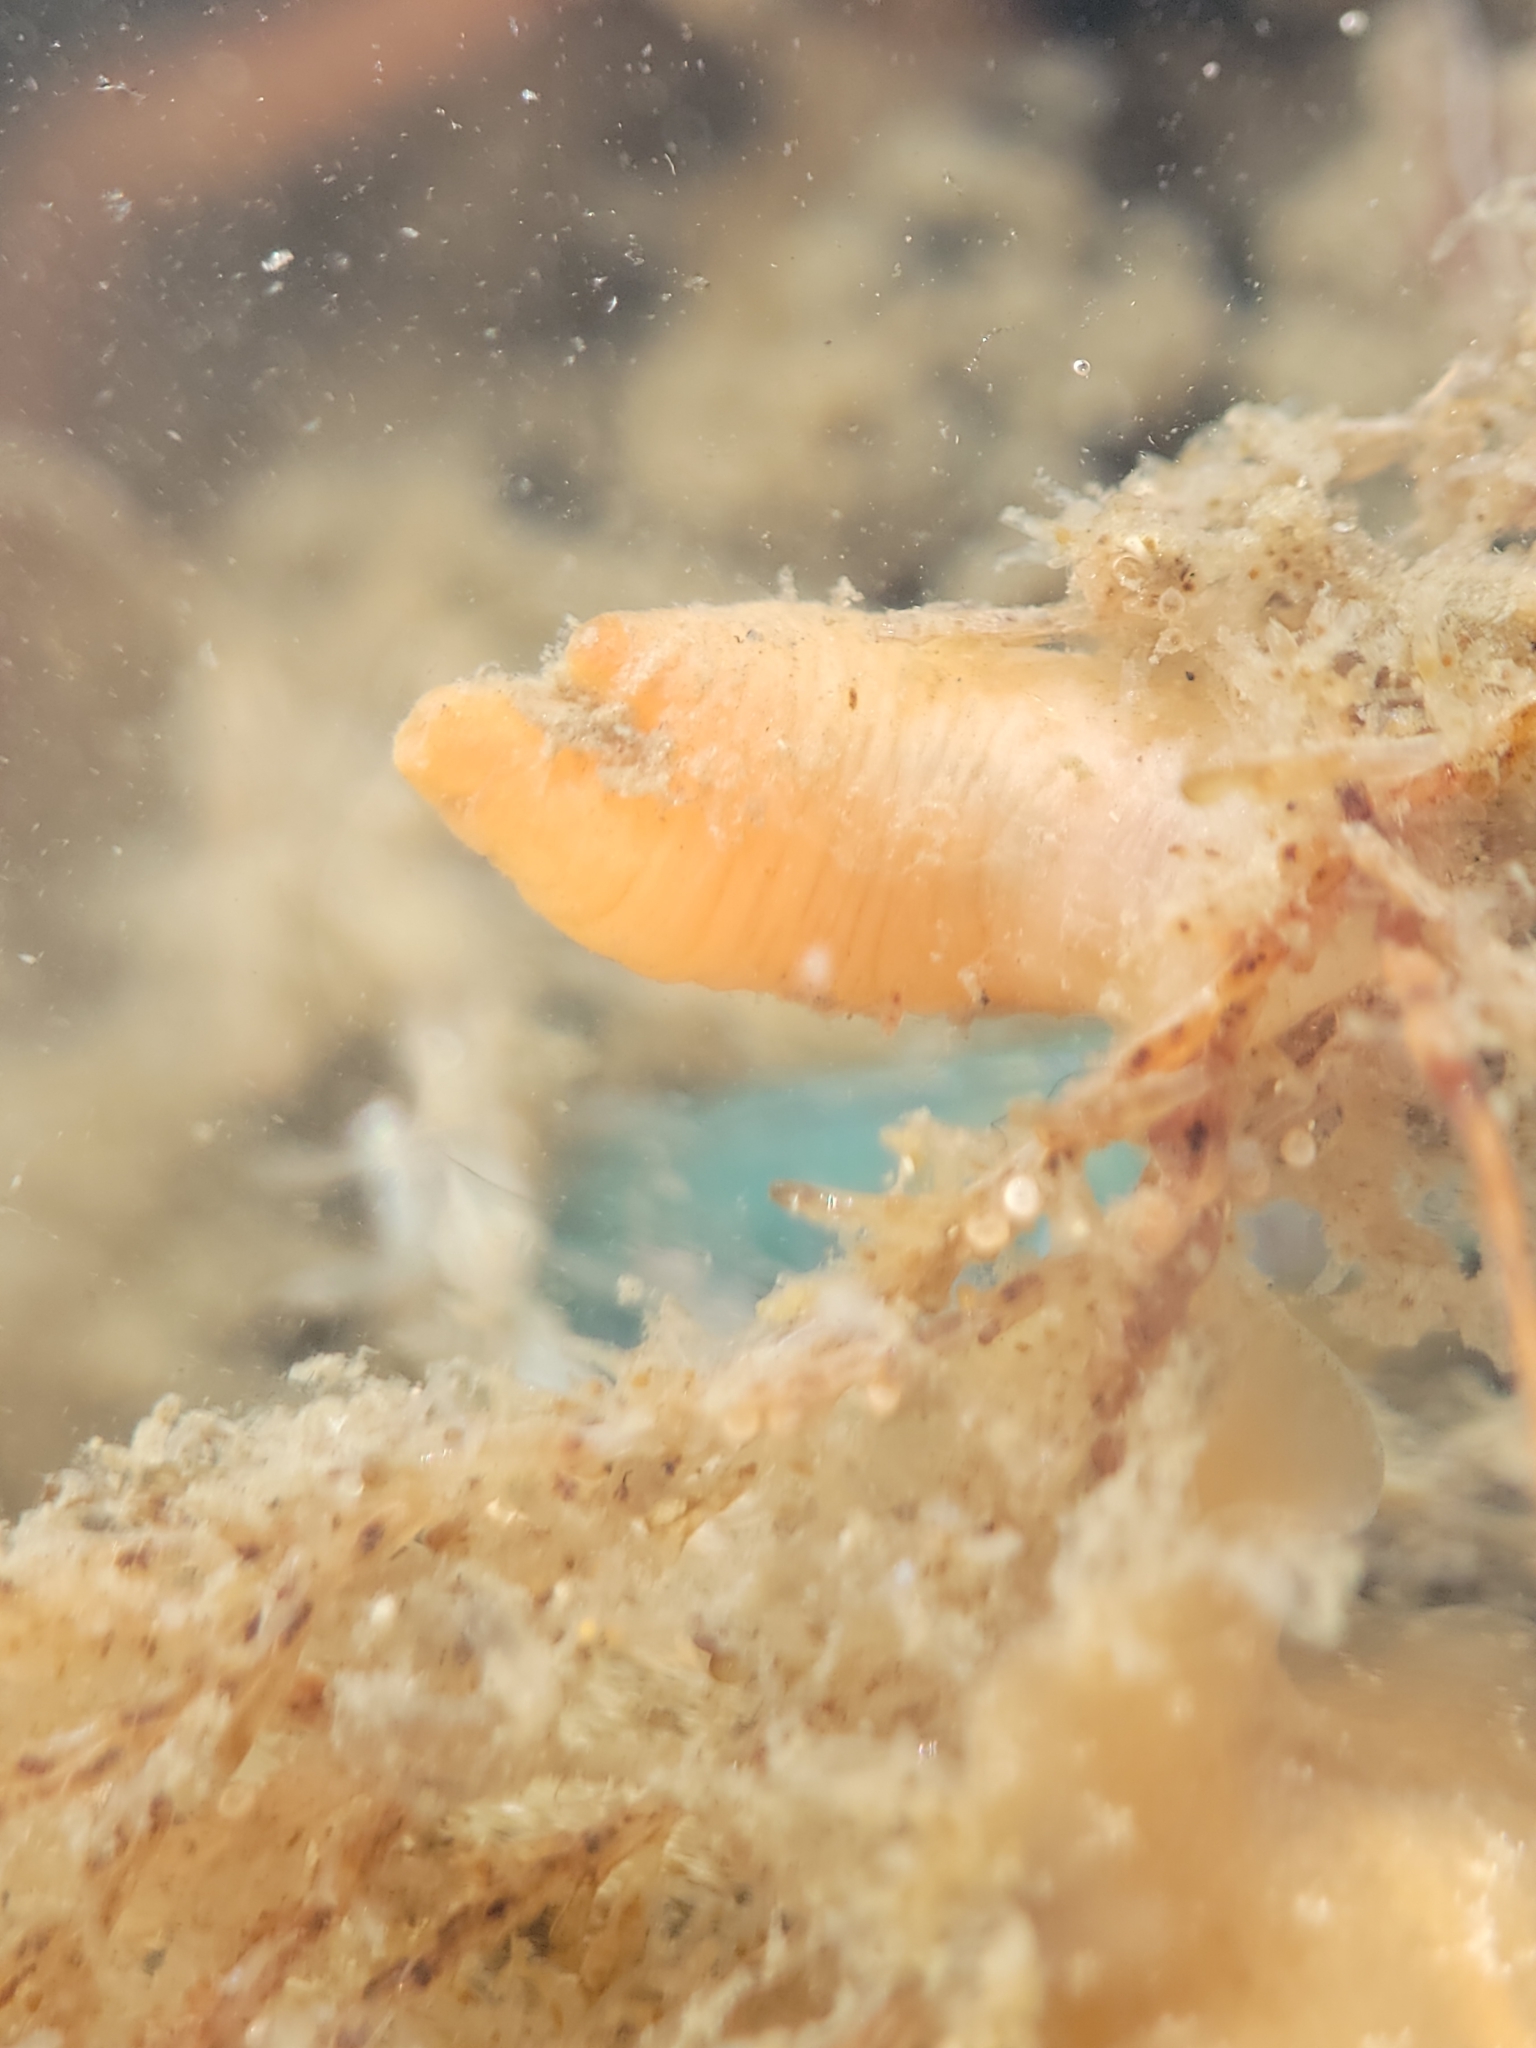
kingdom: Animalia
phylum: Chordata
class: Ascidiacea
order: Stolidobranchia
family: Pyuridae
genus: Pyura
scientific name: Pyura haustor
